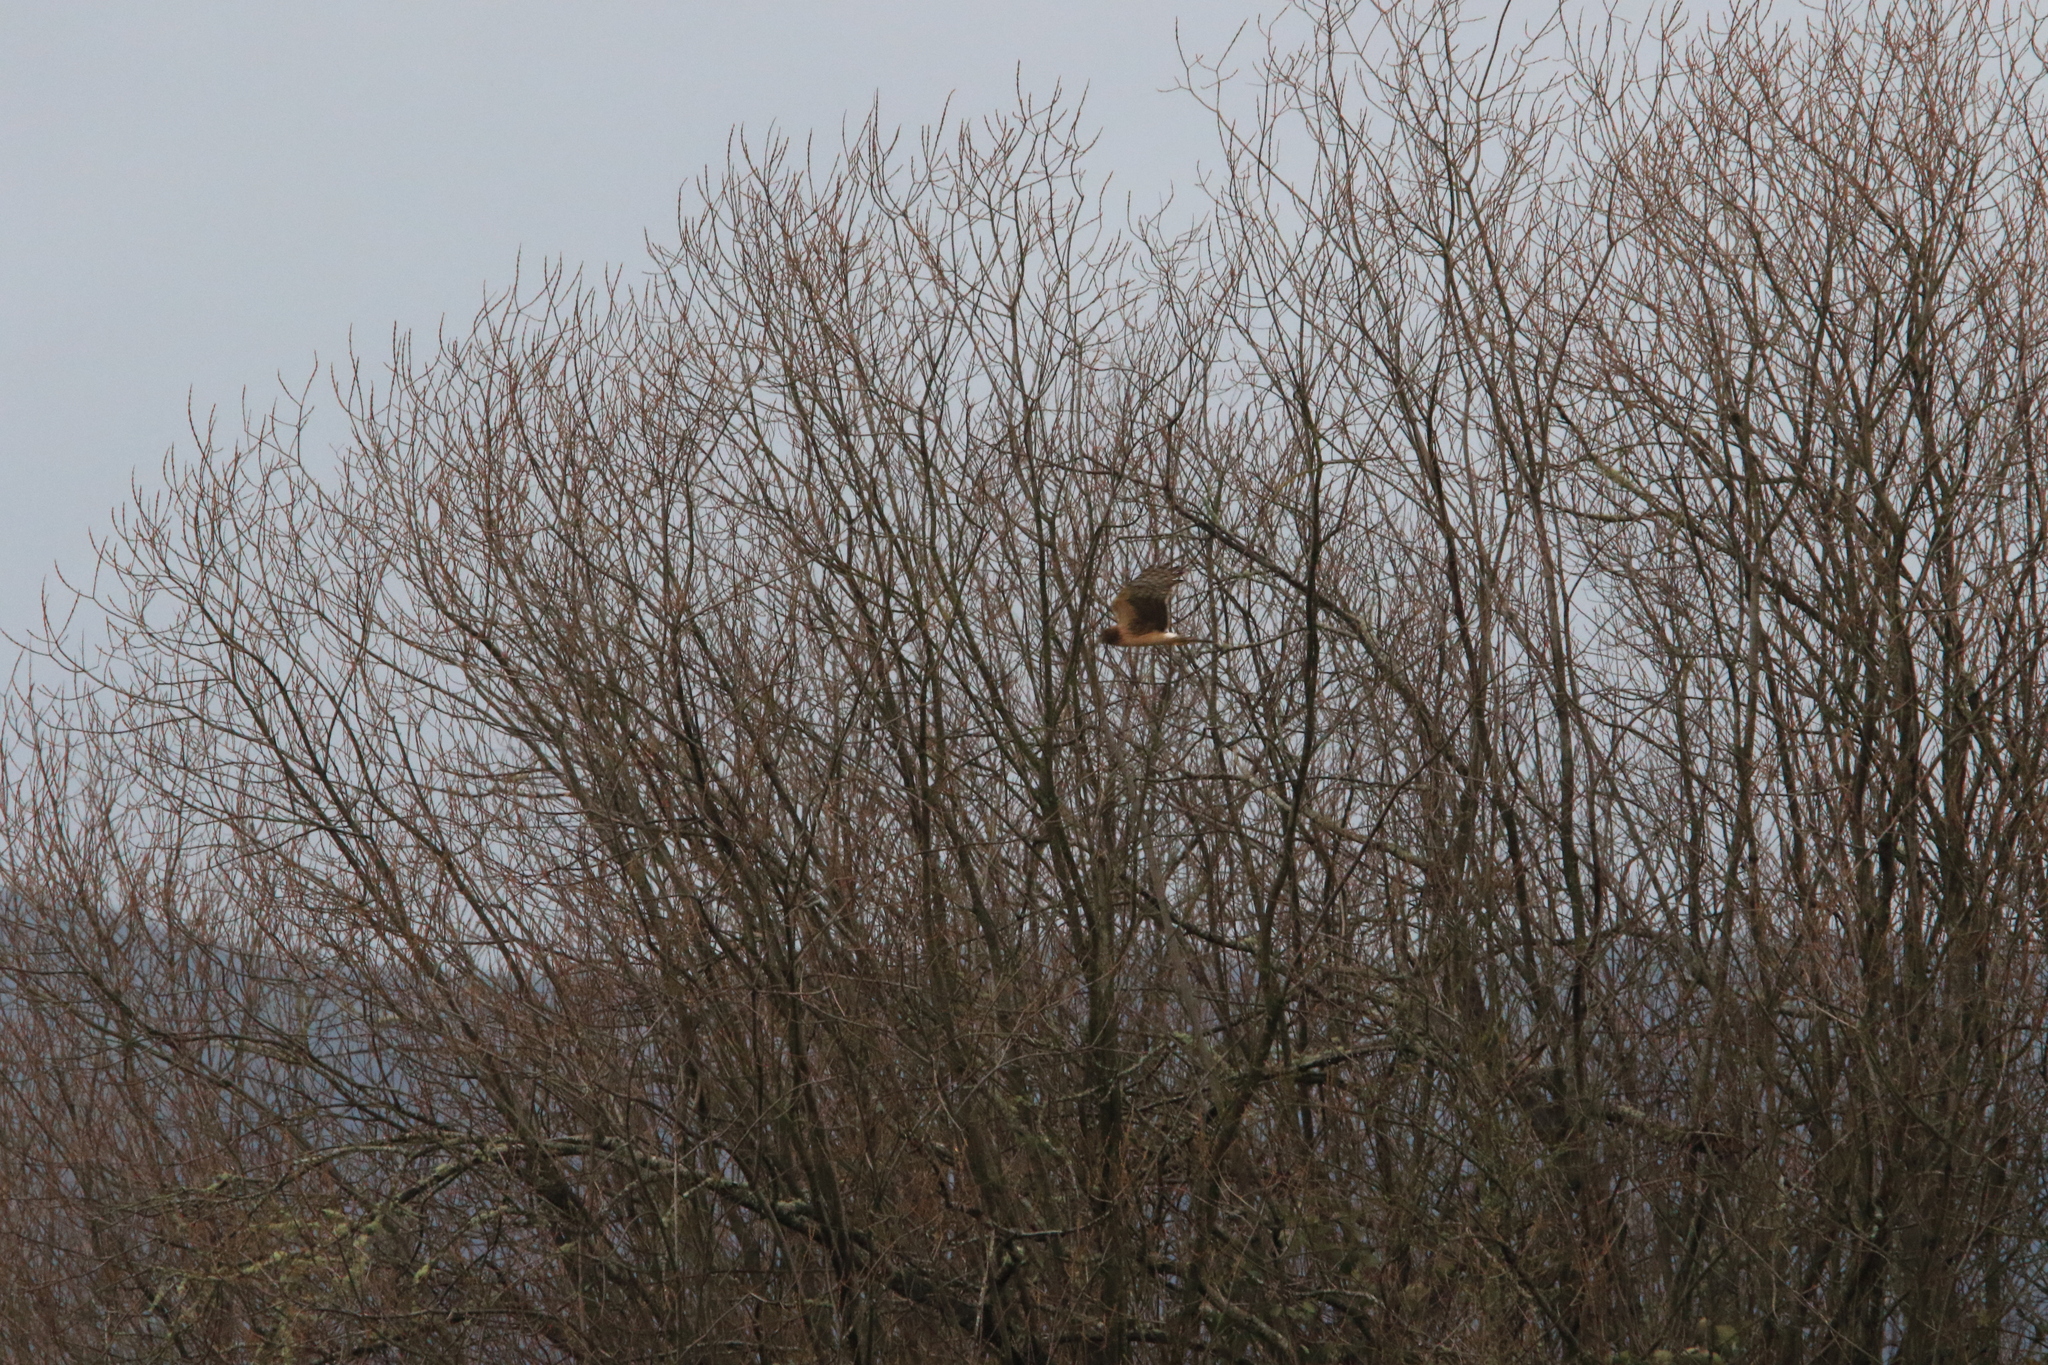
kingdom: Animalia
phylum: Chordata
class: Aves
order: Accipitriformes
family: Accipitridae
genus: Circus
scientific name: Circus cyaneus
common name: Hen harrier
